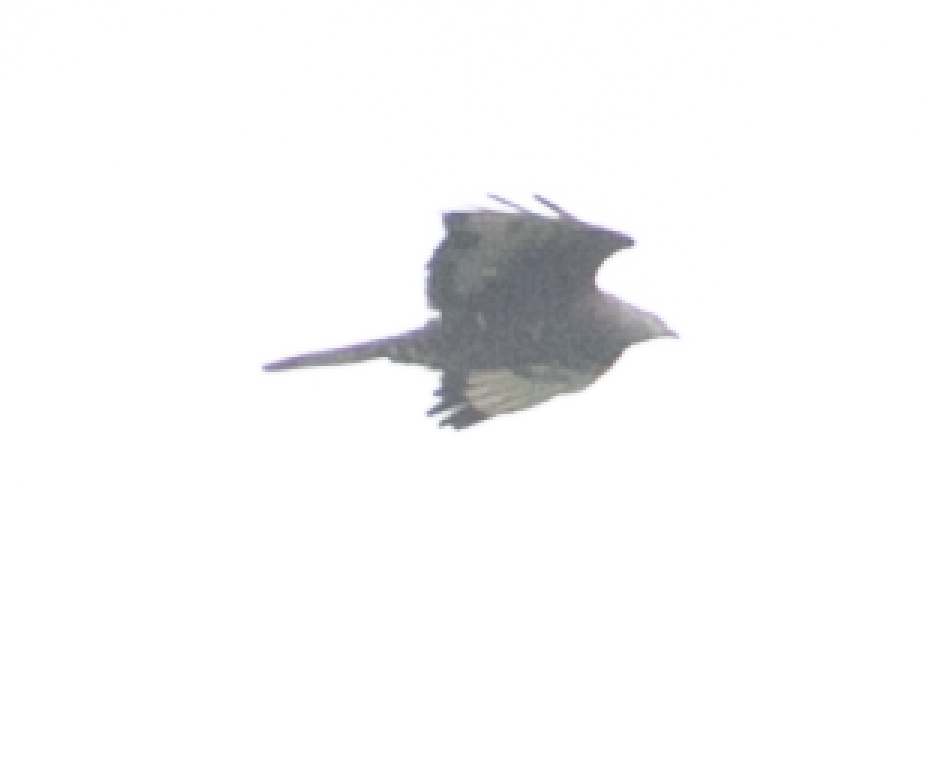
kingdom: Animalia
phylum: Chordata
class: Aves
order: Accipitriformes
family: Accipitridae
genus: Pernis
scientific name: Pernis apivorus
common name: European honey buzzard
